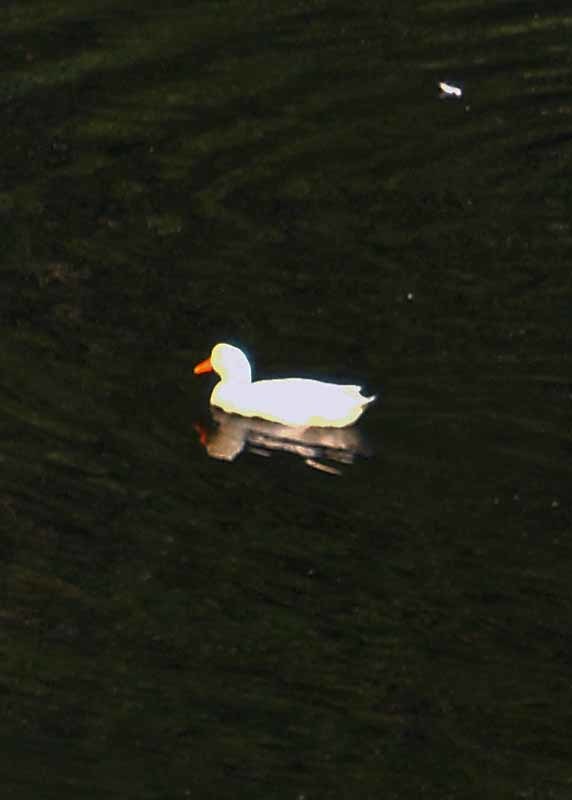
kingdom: Animalia
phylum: Chordata
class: Aves
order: Anseriformes
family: Anatidae
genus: Anas
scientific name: Anas platyrhynchos
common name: Mallard
